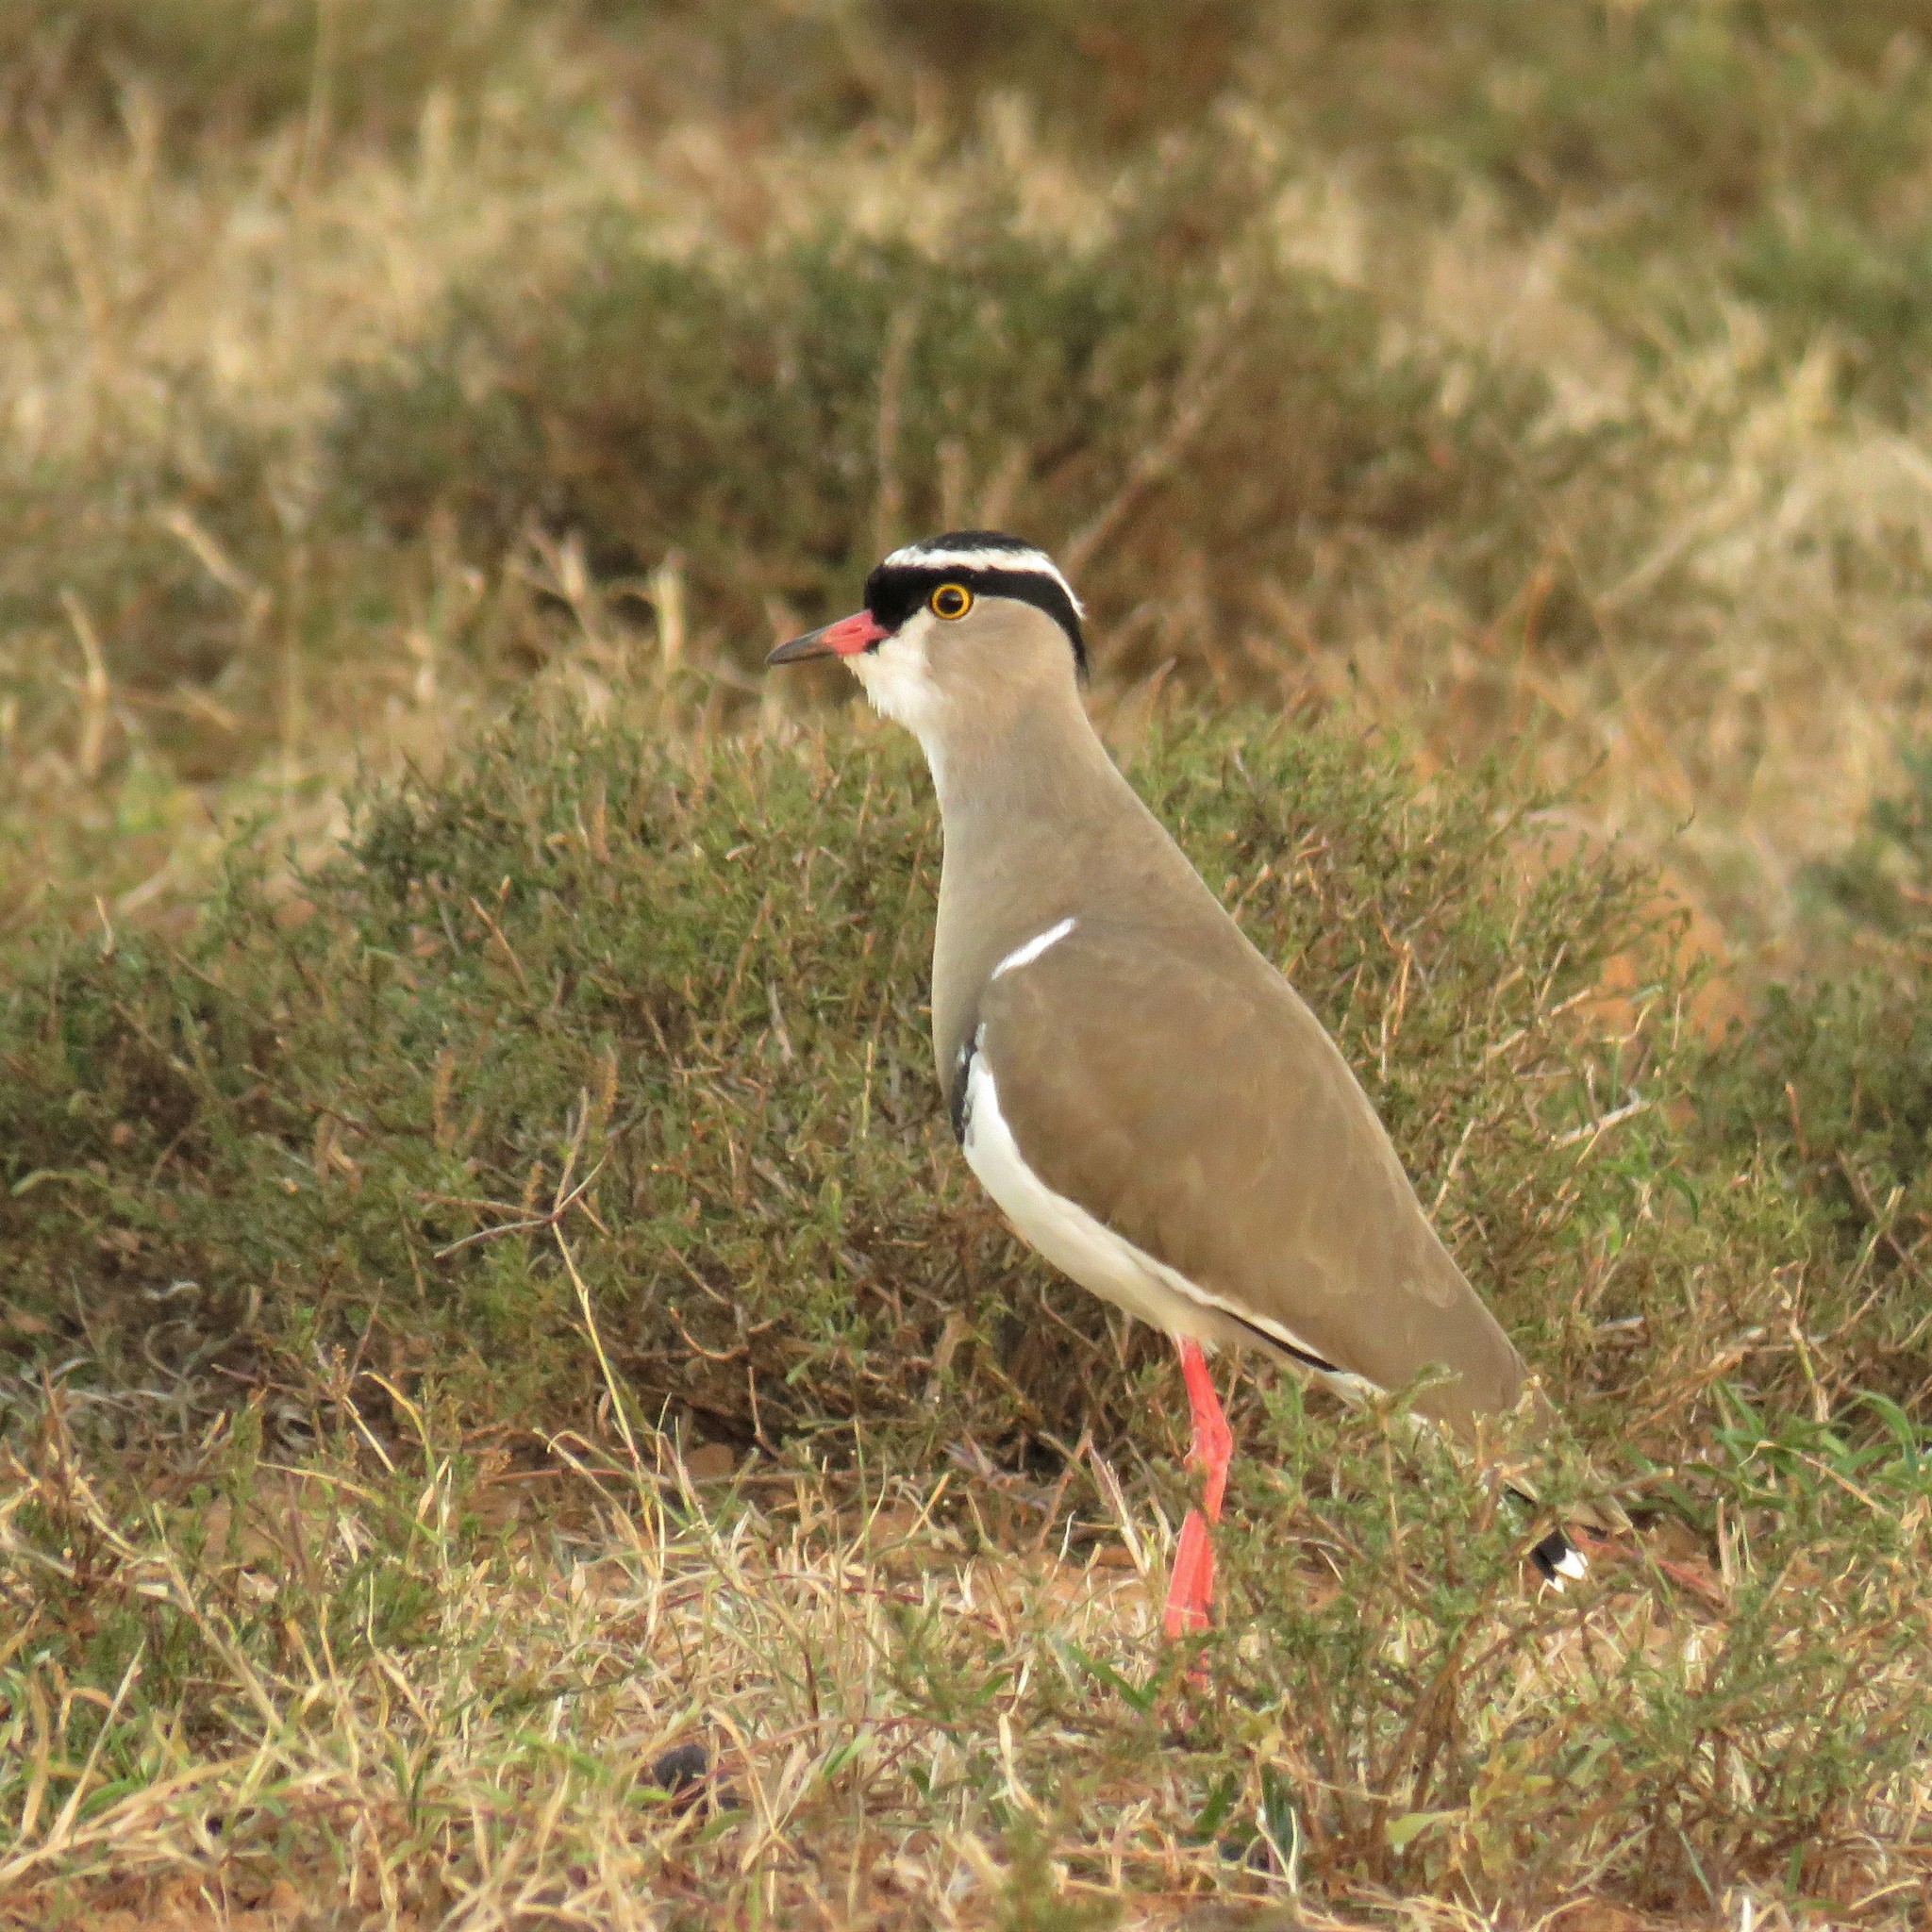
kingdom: Animalia
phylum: Chordata
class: Aves
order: Charadriiformes
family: Charadriidae
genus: Vanellus
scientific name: Vanellus coronatus
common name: Crowned lapwing
